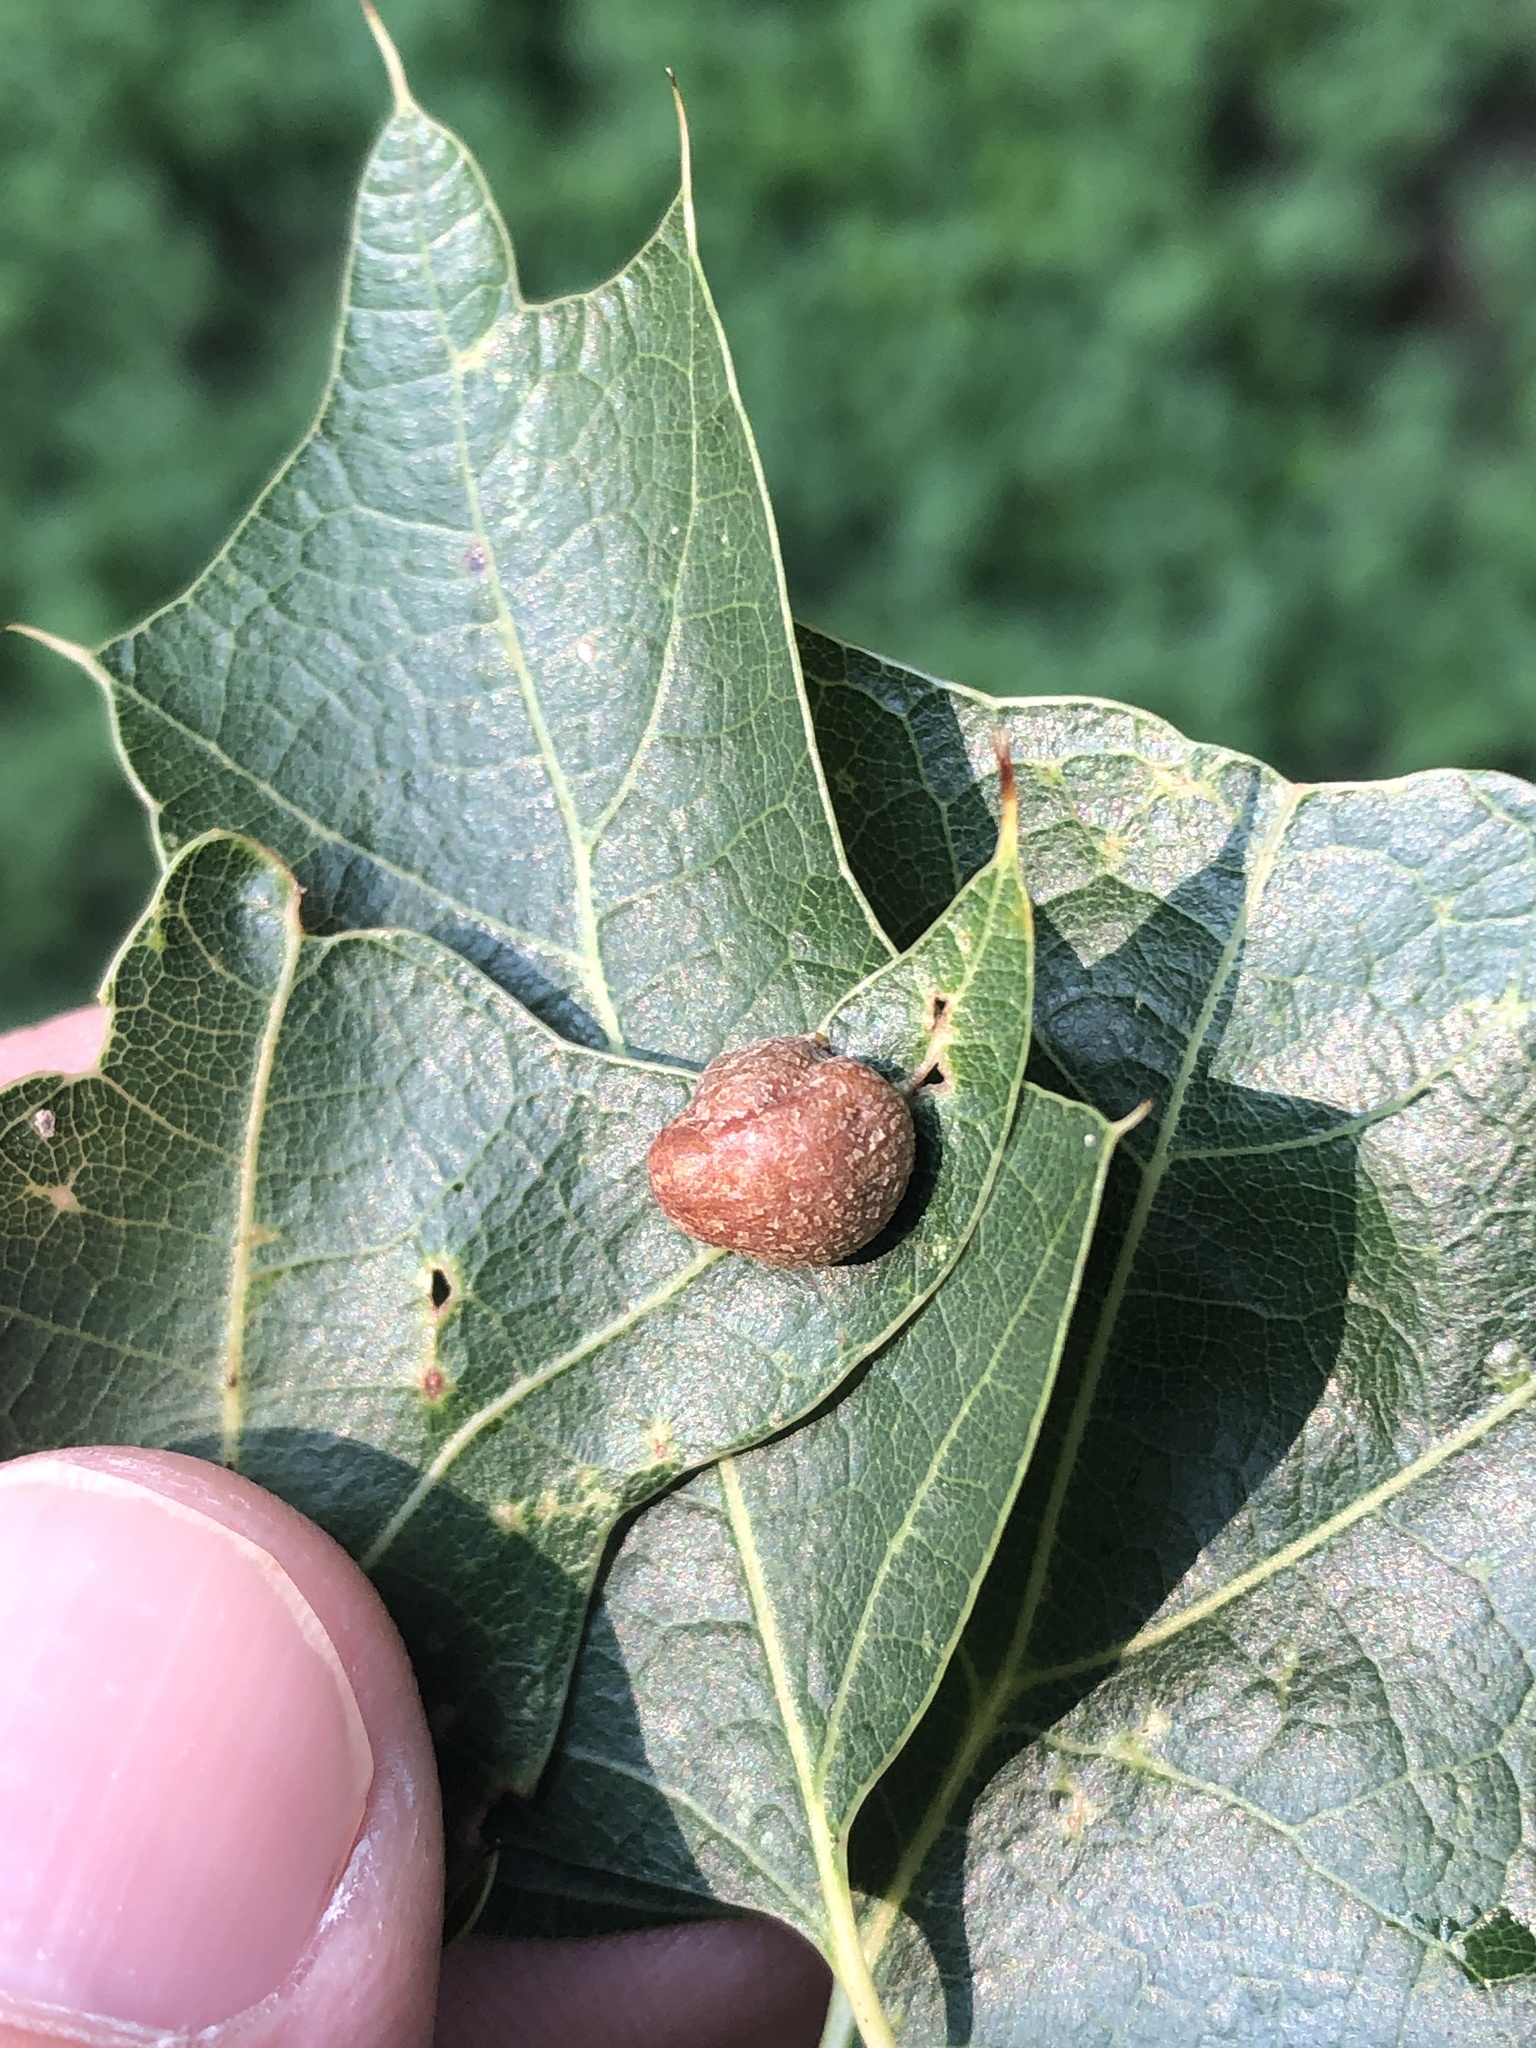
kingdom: Animalia
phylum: Arthropoda
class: Insecta
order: Diptera
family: Cecidomyiidae
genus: Polystepha
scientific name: Polystepha pilulae
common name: Oak leaf gall midge
